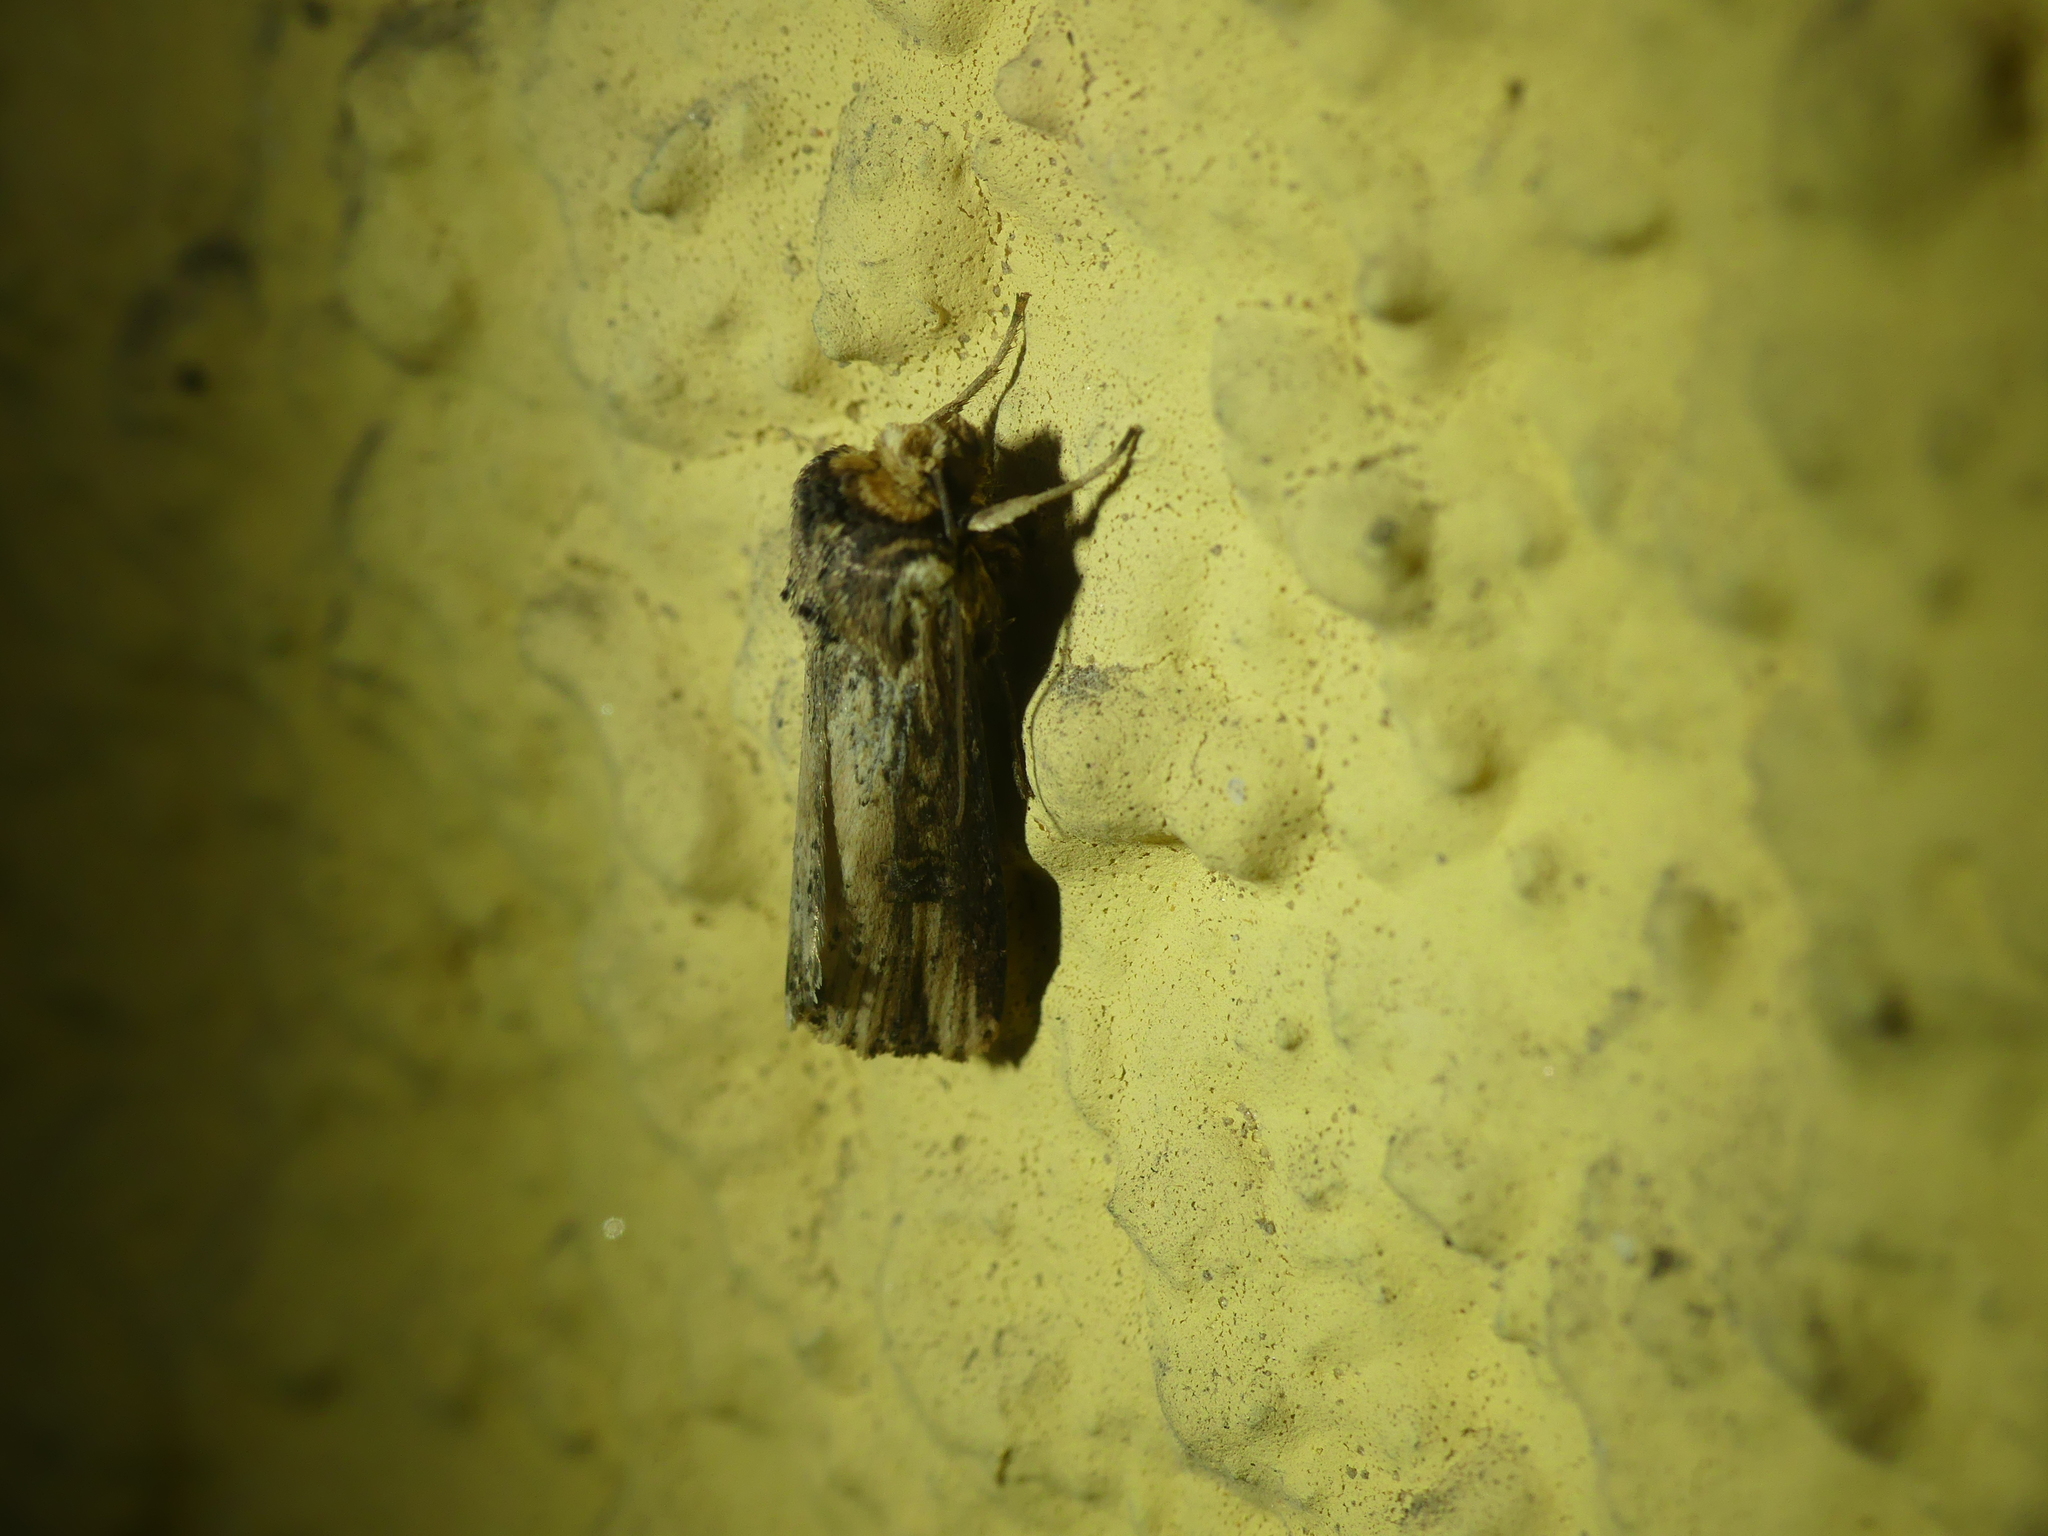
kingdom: Animalia
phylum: Arthropoda
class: Insecta
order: Lepidoptera
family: Noctuidae
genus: Axylia
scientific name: Axylia putris
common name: Flame
